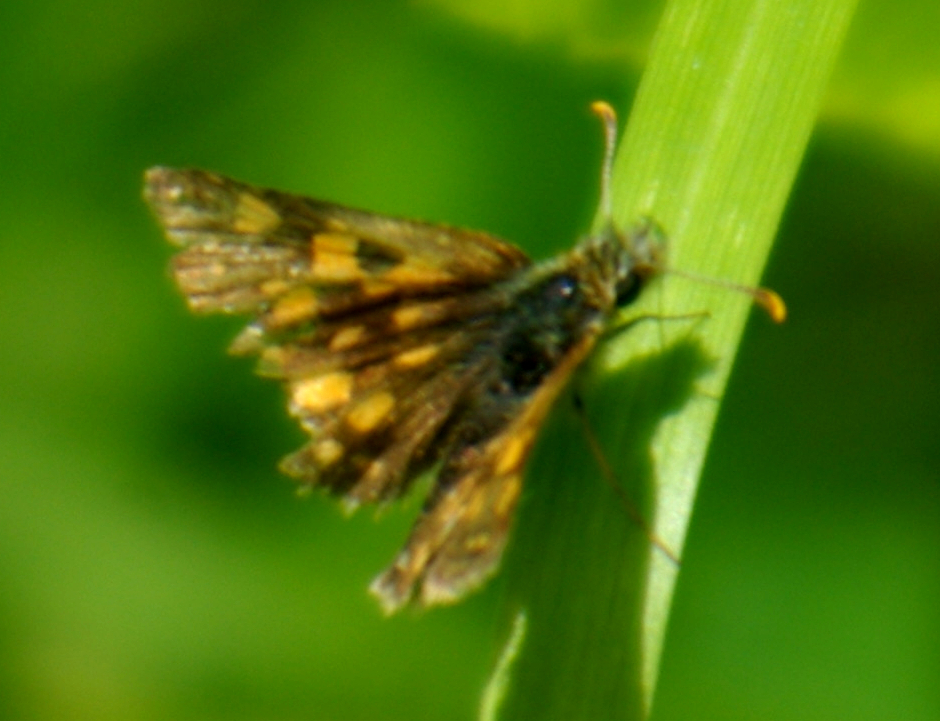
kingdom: Animalia
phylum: Arthropoda
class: Insecta
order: Lepidoptera
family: Hesperiidae
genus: Carterocephalus
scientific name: Carterocephalus mandan
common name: Arctic skipperling
